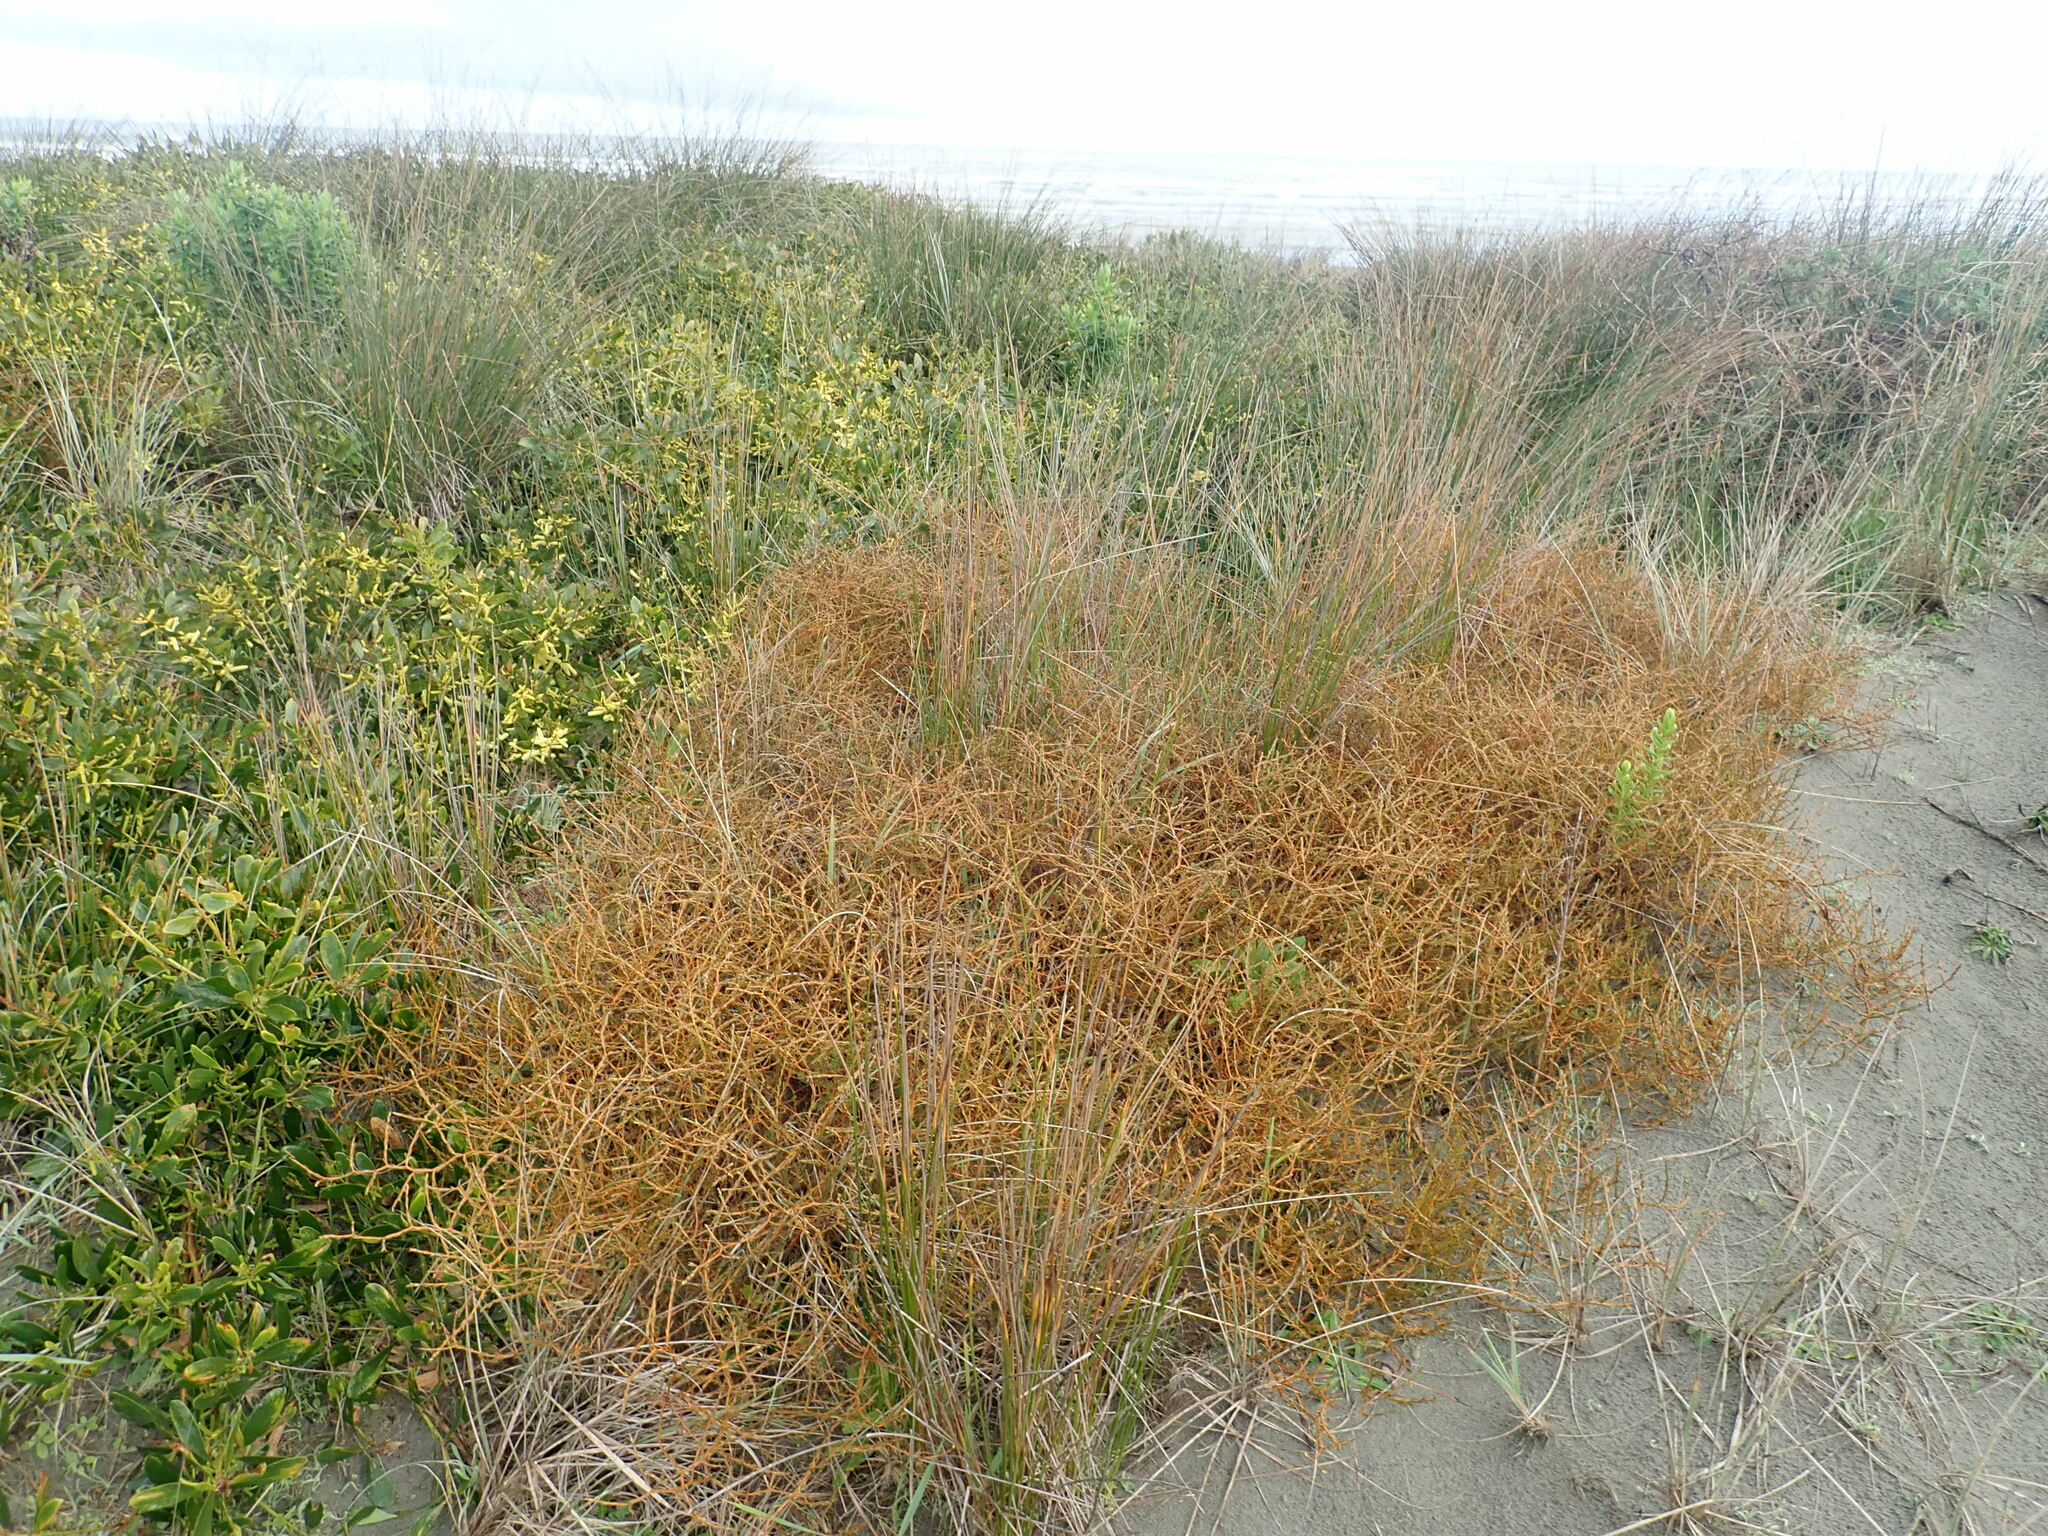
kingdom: Plantae
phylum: Tracheophyta
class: Magnoliopsida
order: Gentianales
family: Rubiaceae
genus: Coprosma
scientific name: Coprosma acerosa
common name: Sand coprosma
